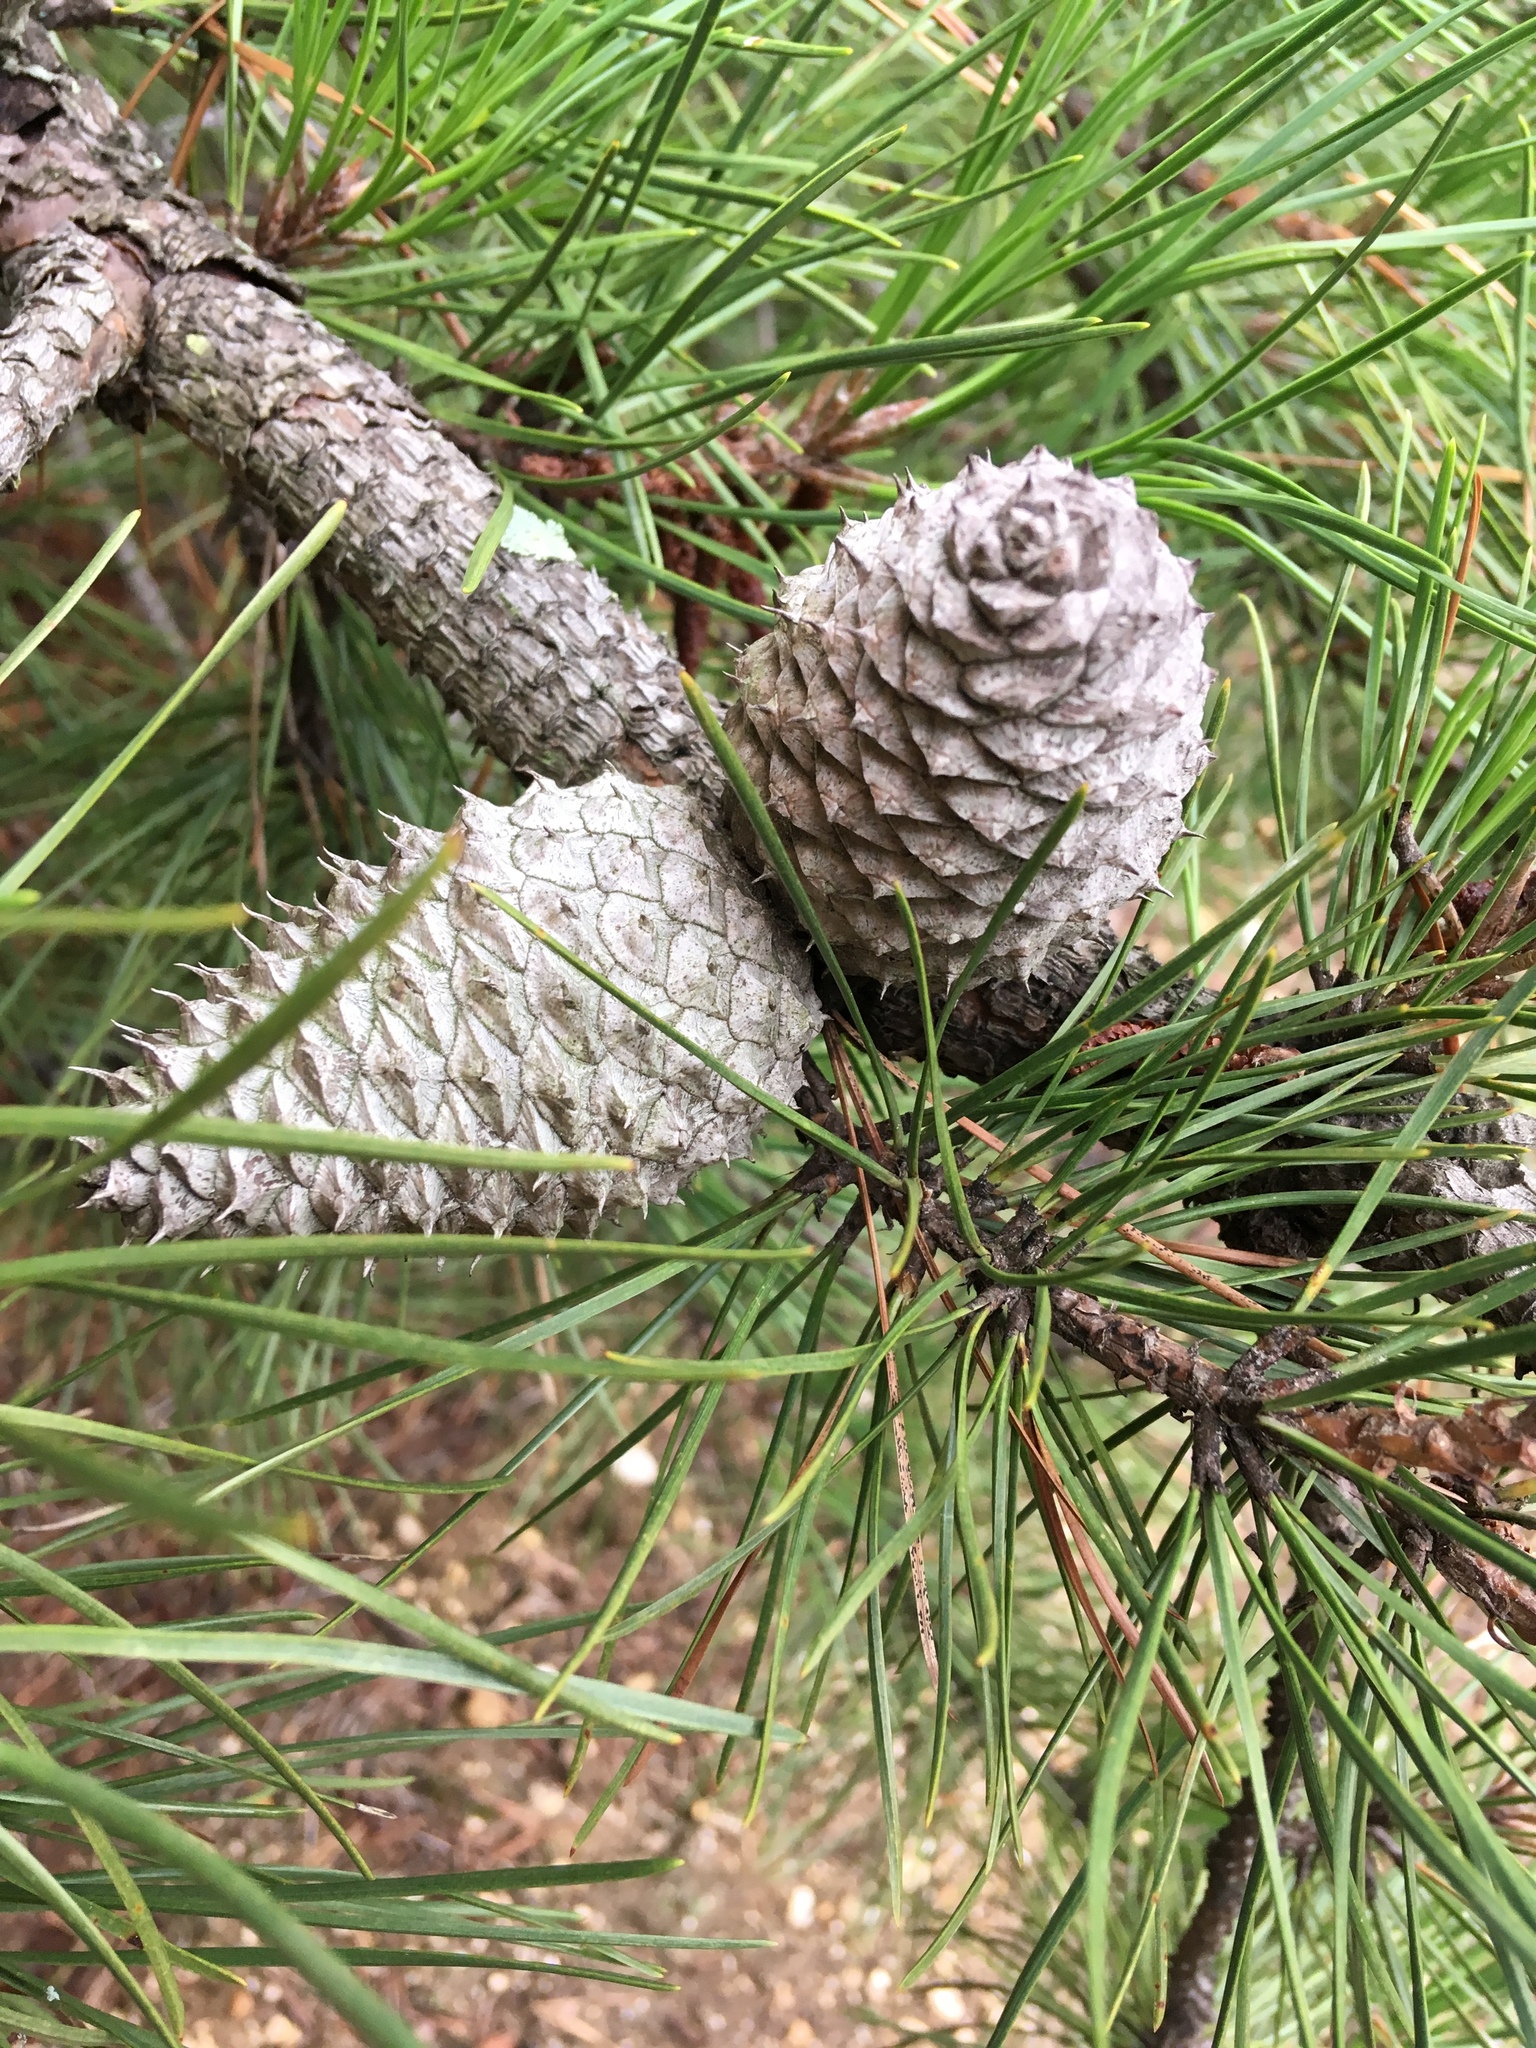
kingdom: Plantae
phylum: Tracheophyta
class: Pinopsida
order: Pinales
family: Pinaceae
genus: Pinus
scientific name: Pinus rigida
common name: Pitch pine
